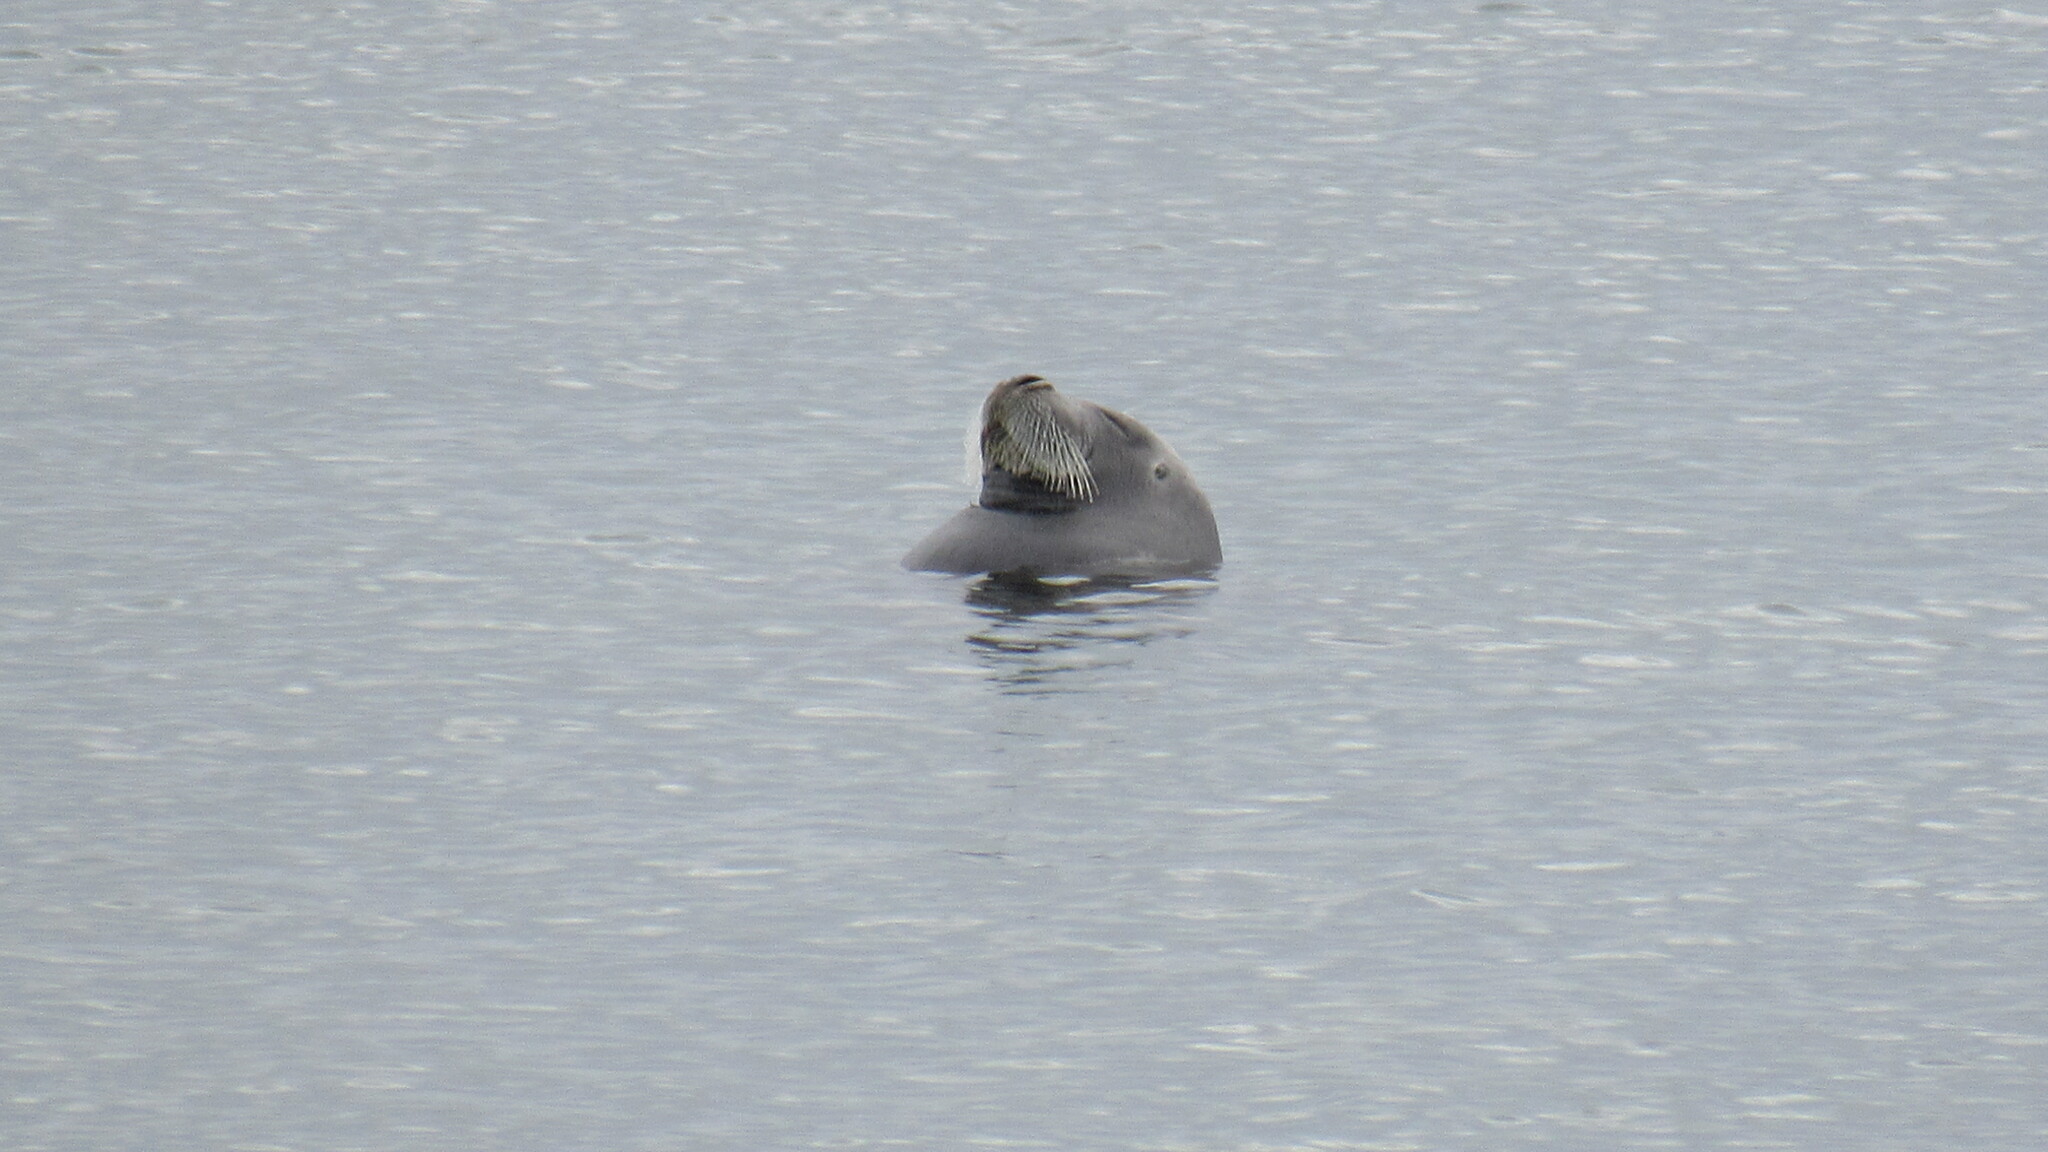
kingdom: Animalia
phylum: Chordata
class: Mammalia
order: Carnivora
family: Phocidae
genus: Erignathus
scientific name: Erignathus barbatus
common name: Bearded seal
